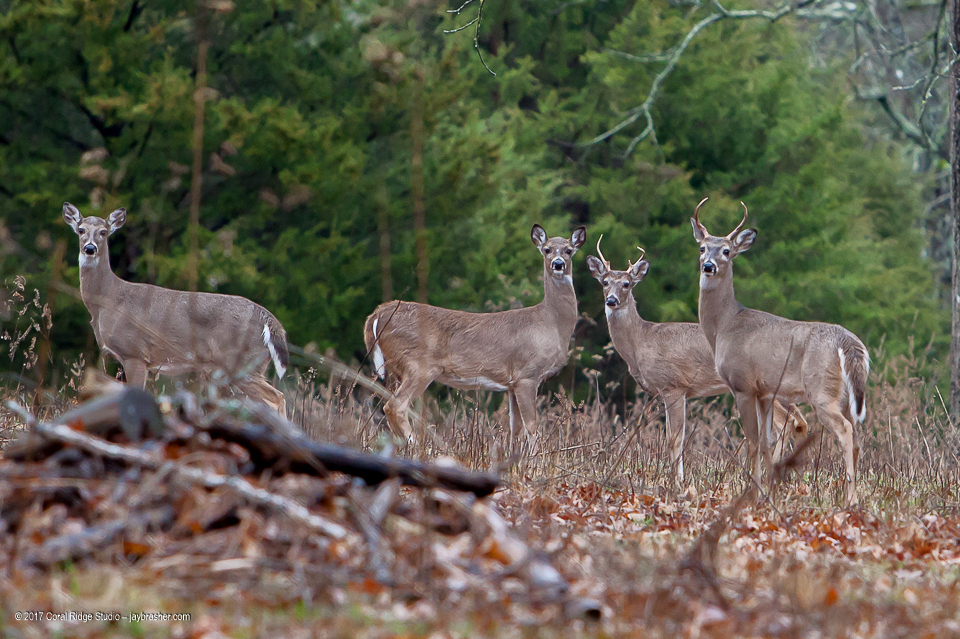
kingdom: Animalia
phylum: Chordata
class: Mammalia
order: Artiodactyla
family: Cervidae
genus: Odocoileus
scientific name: Odocoileus virginianus
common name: White-tailed deer
